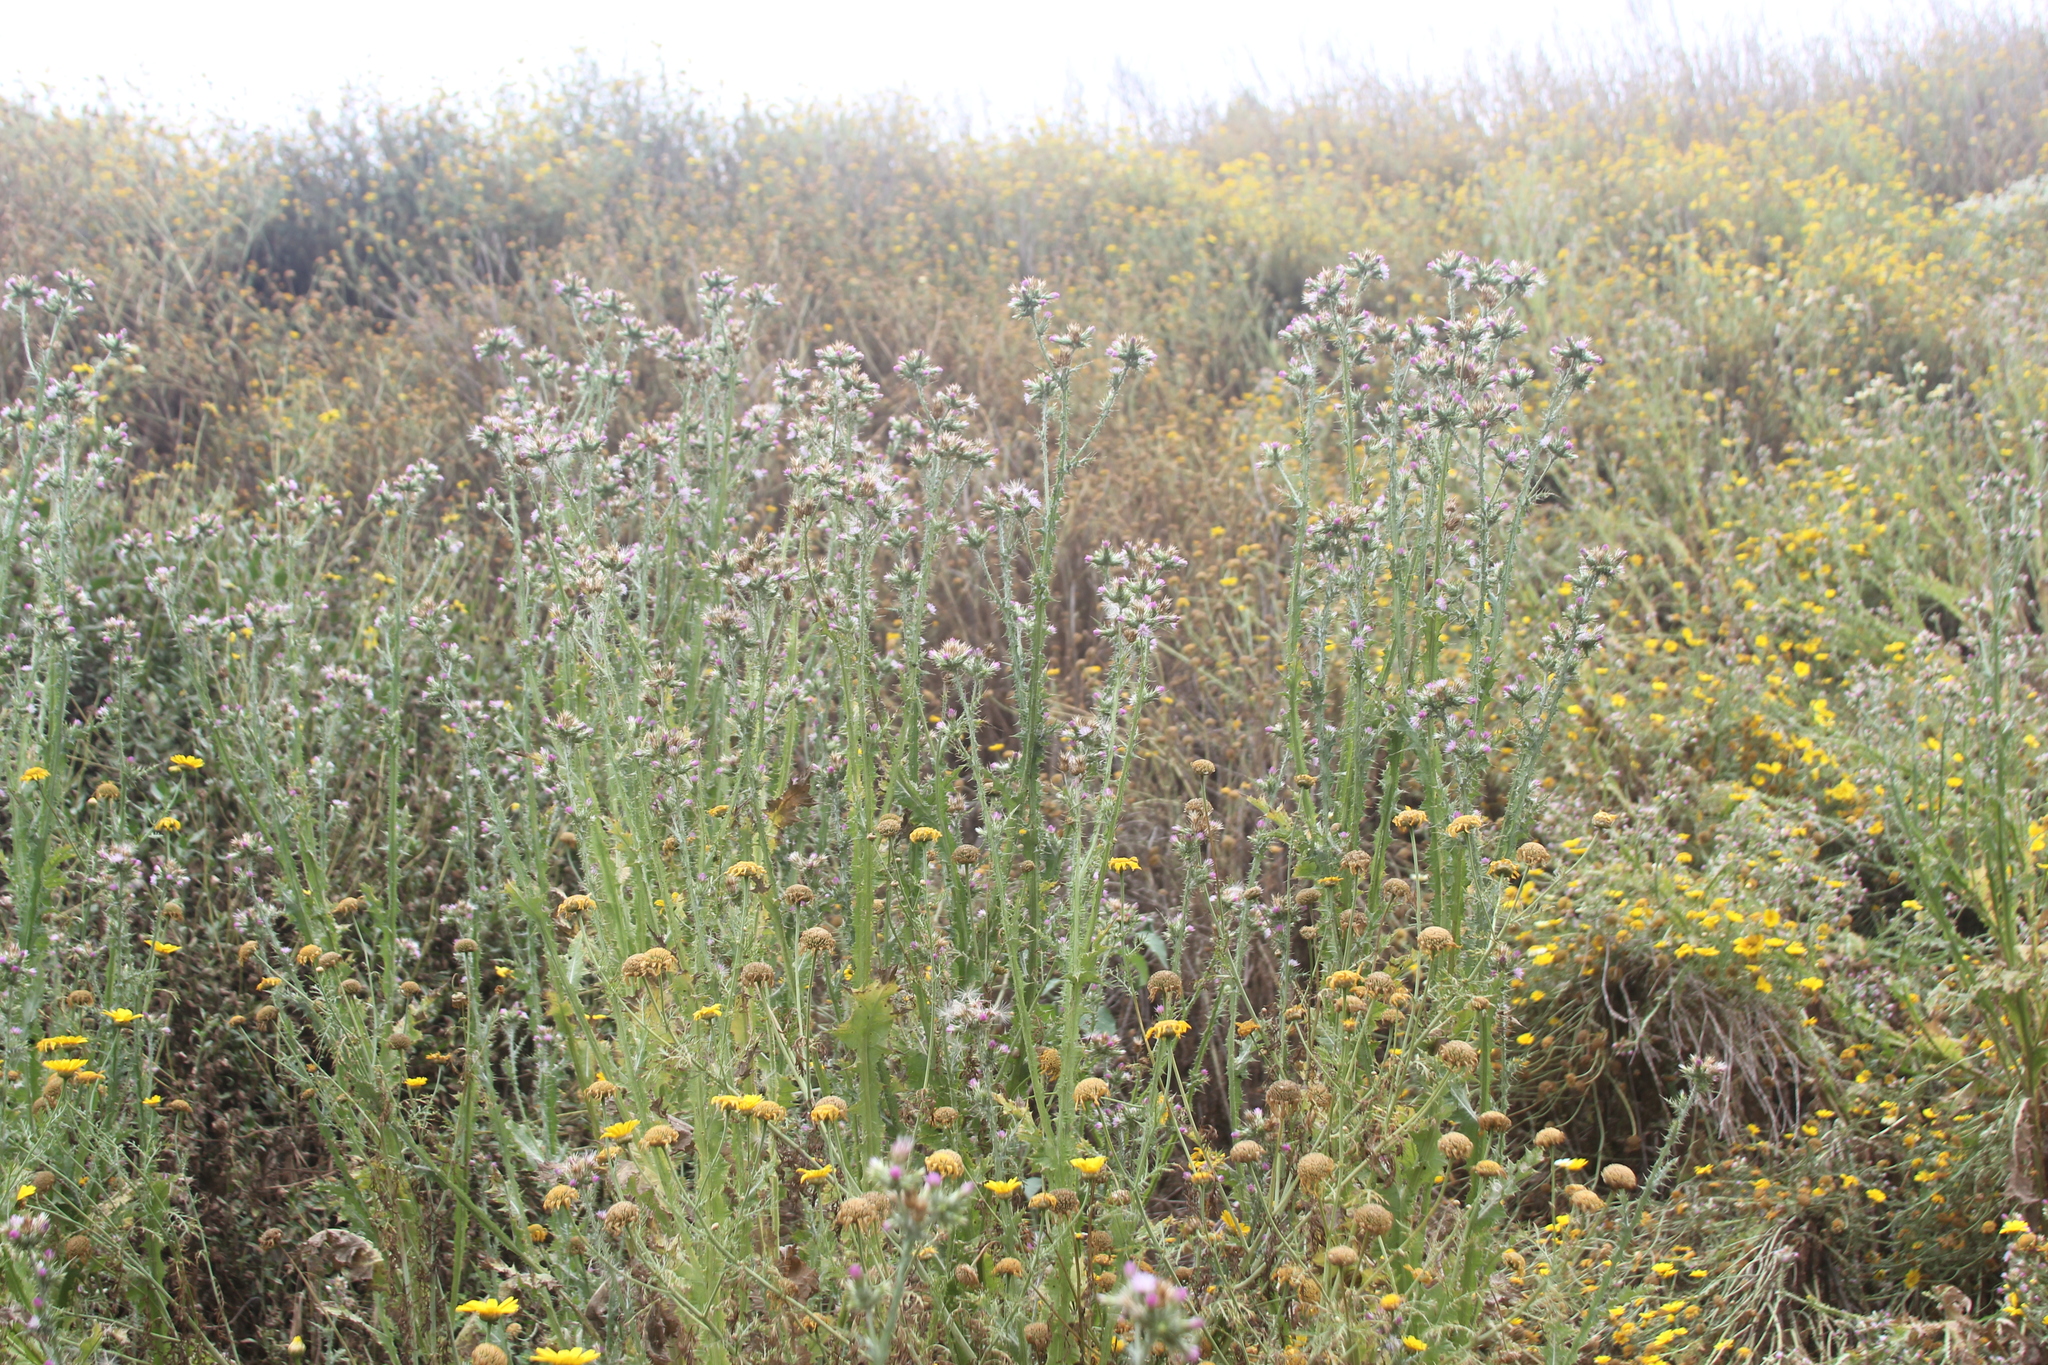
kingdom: Plantae
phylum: Tracheophyta
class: Magnoliopsida
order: Asterales
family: Asteraceae
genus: Carduus
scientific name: Carduus tenuiflorus
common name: Slender thistle
